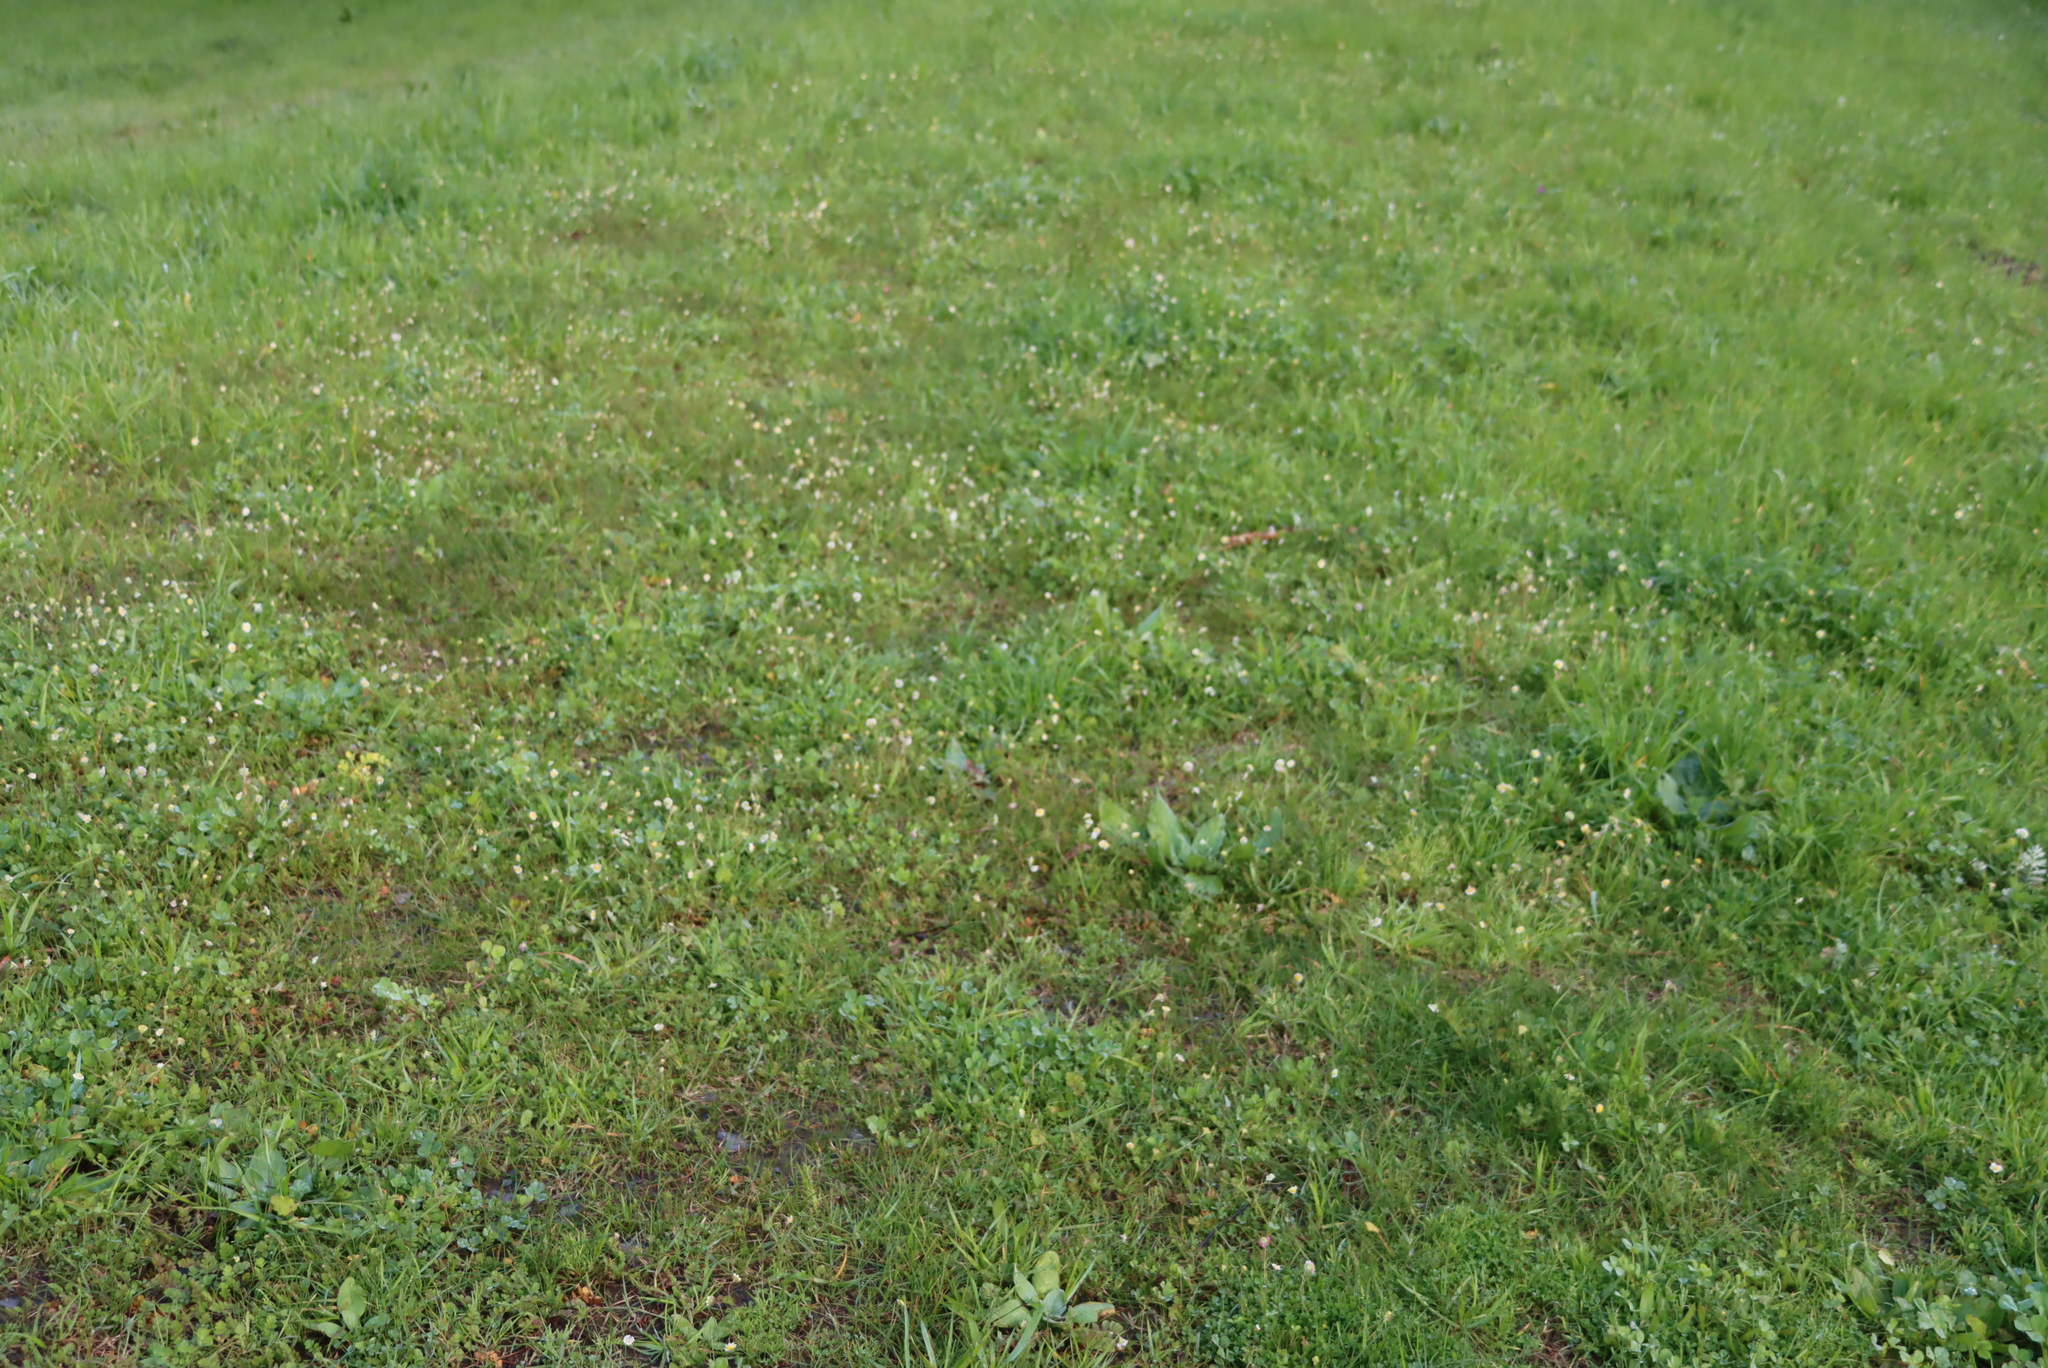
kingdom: Plantae
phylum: Tracheophyta
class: Magnoliopsida
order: Asterales
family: Asteraceae
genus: Cotula
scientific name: Cotula turbinata
